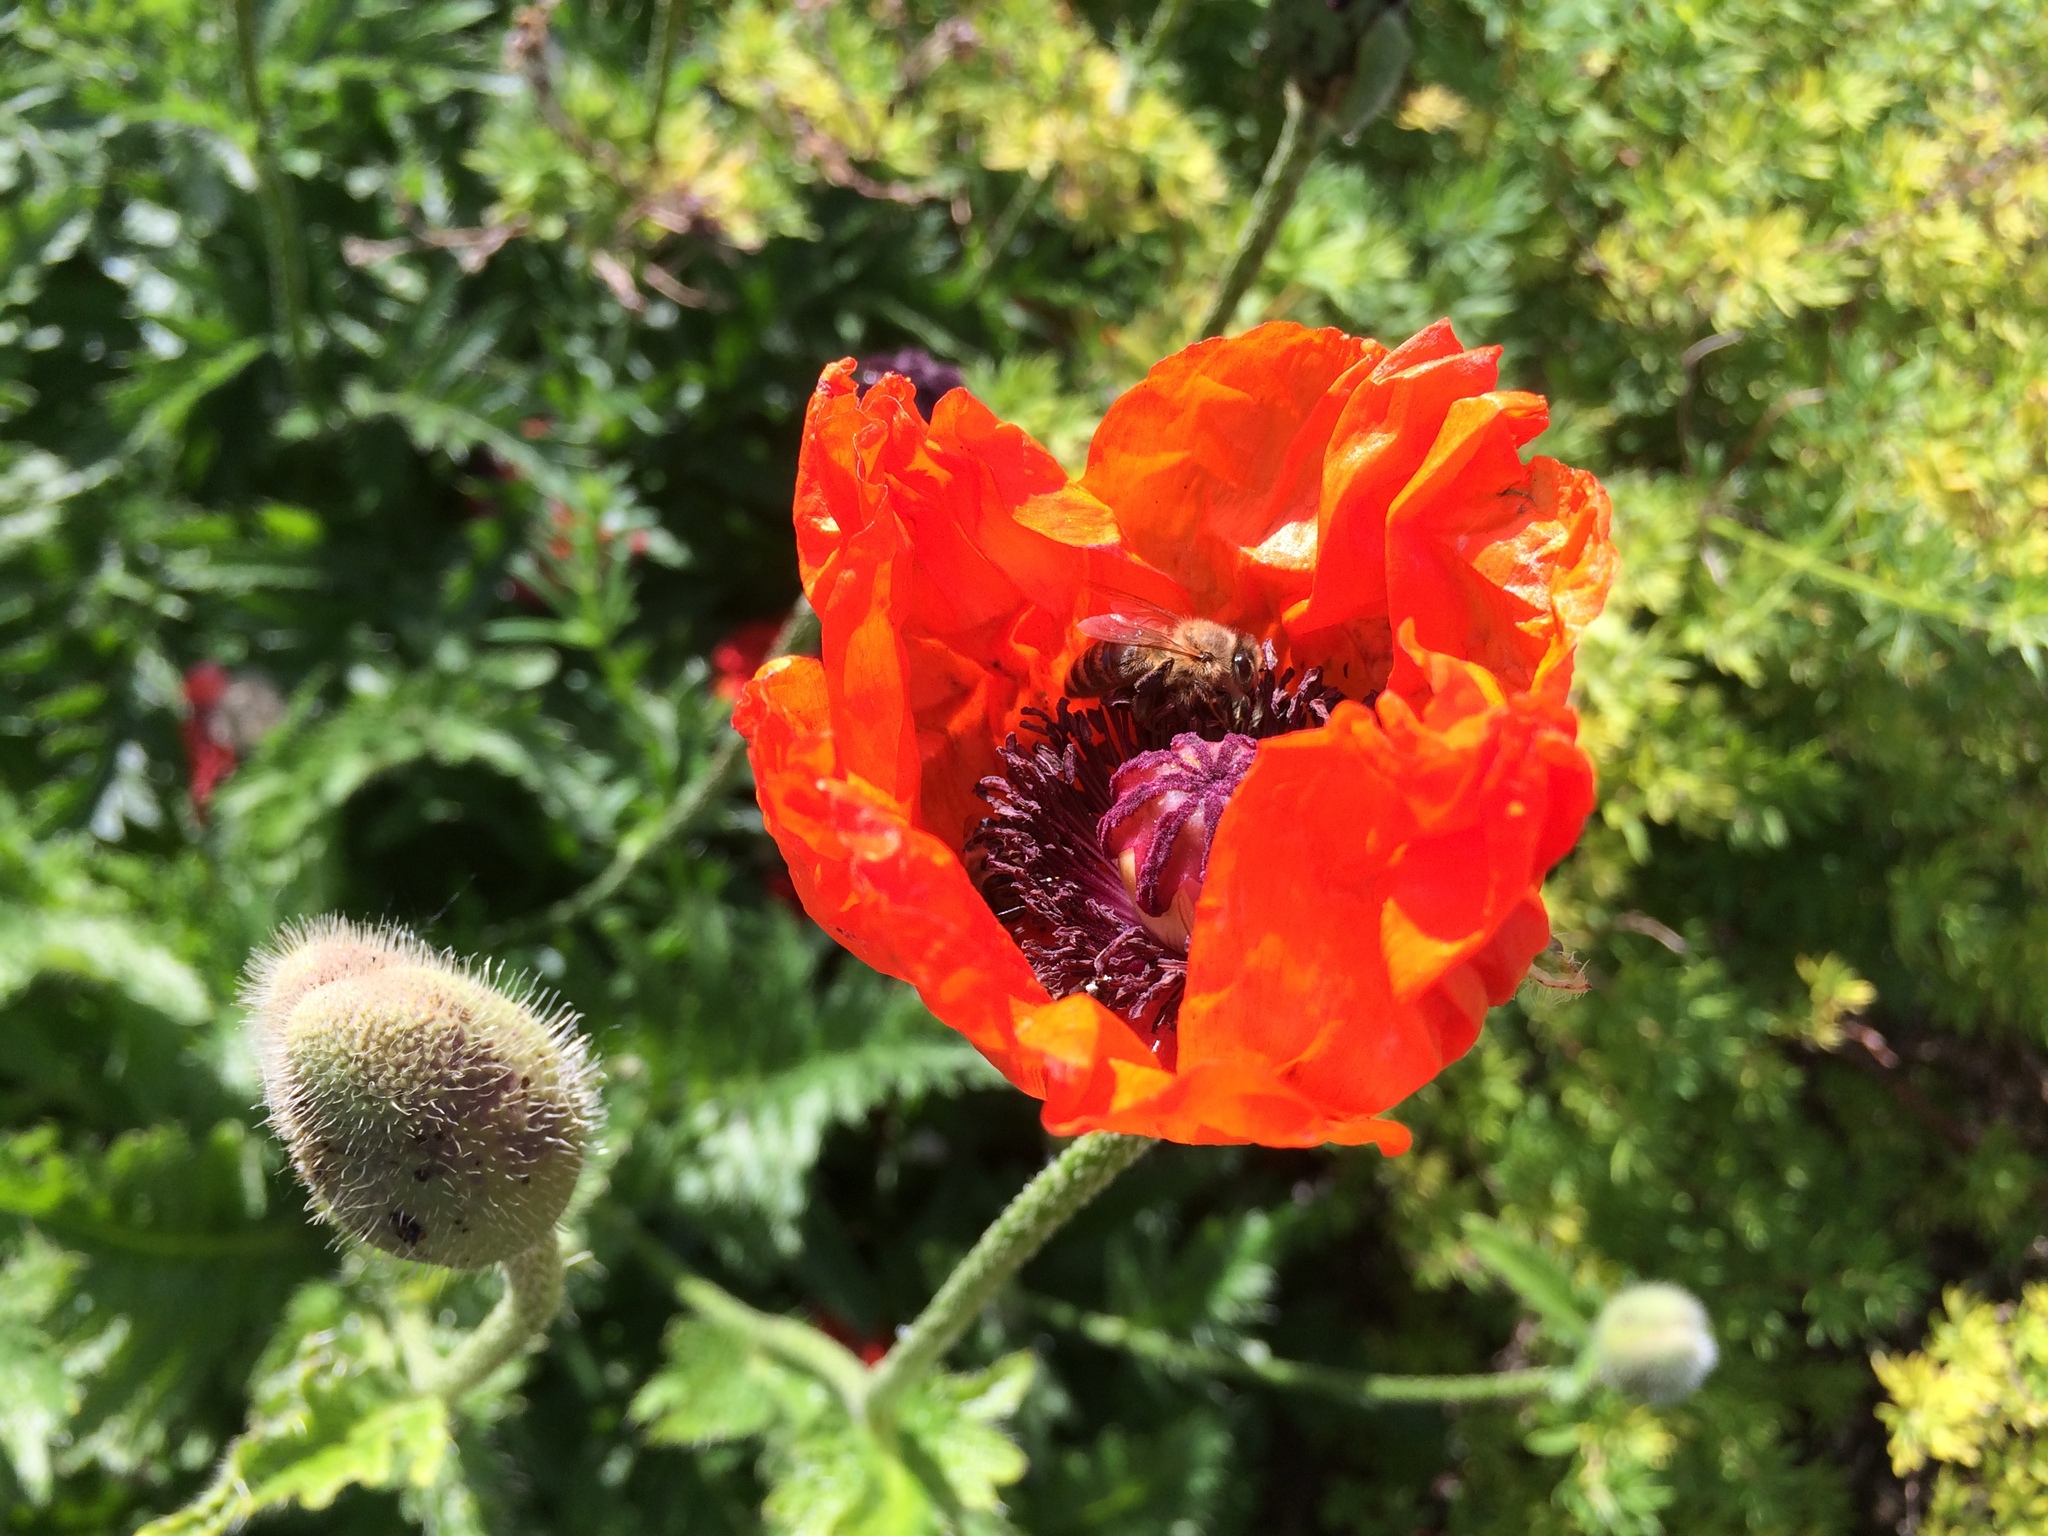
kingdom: Animalia
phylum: Arthropoda
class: Insecta
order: Hymenoptera
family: Apidae
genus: Apis
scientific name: Apis mellifera
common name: Honey bee
